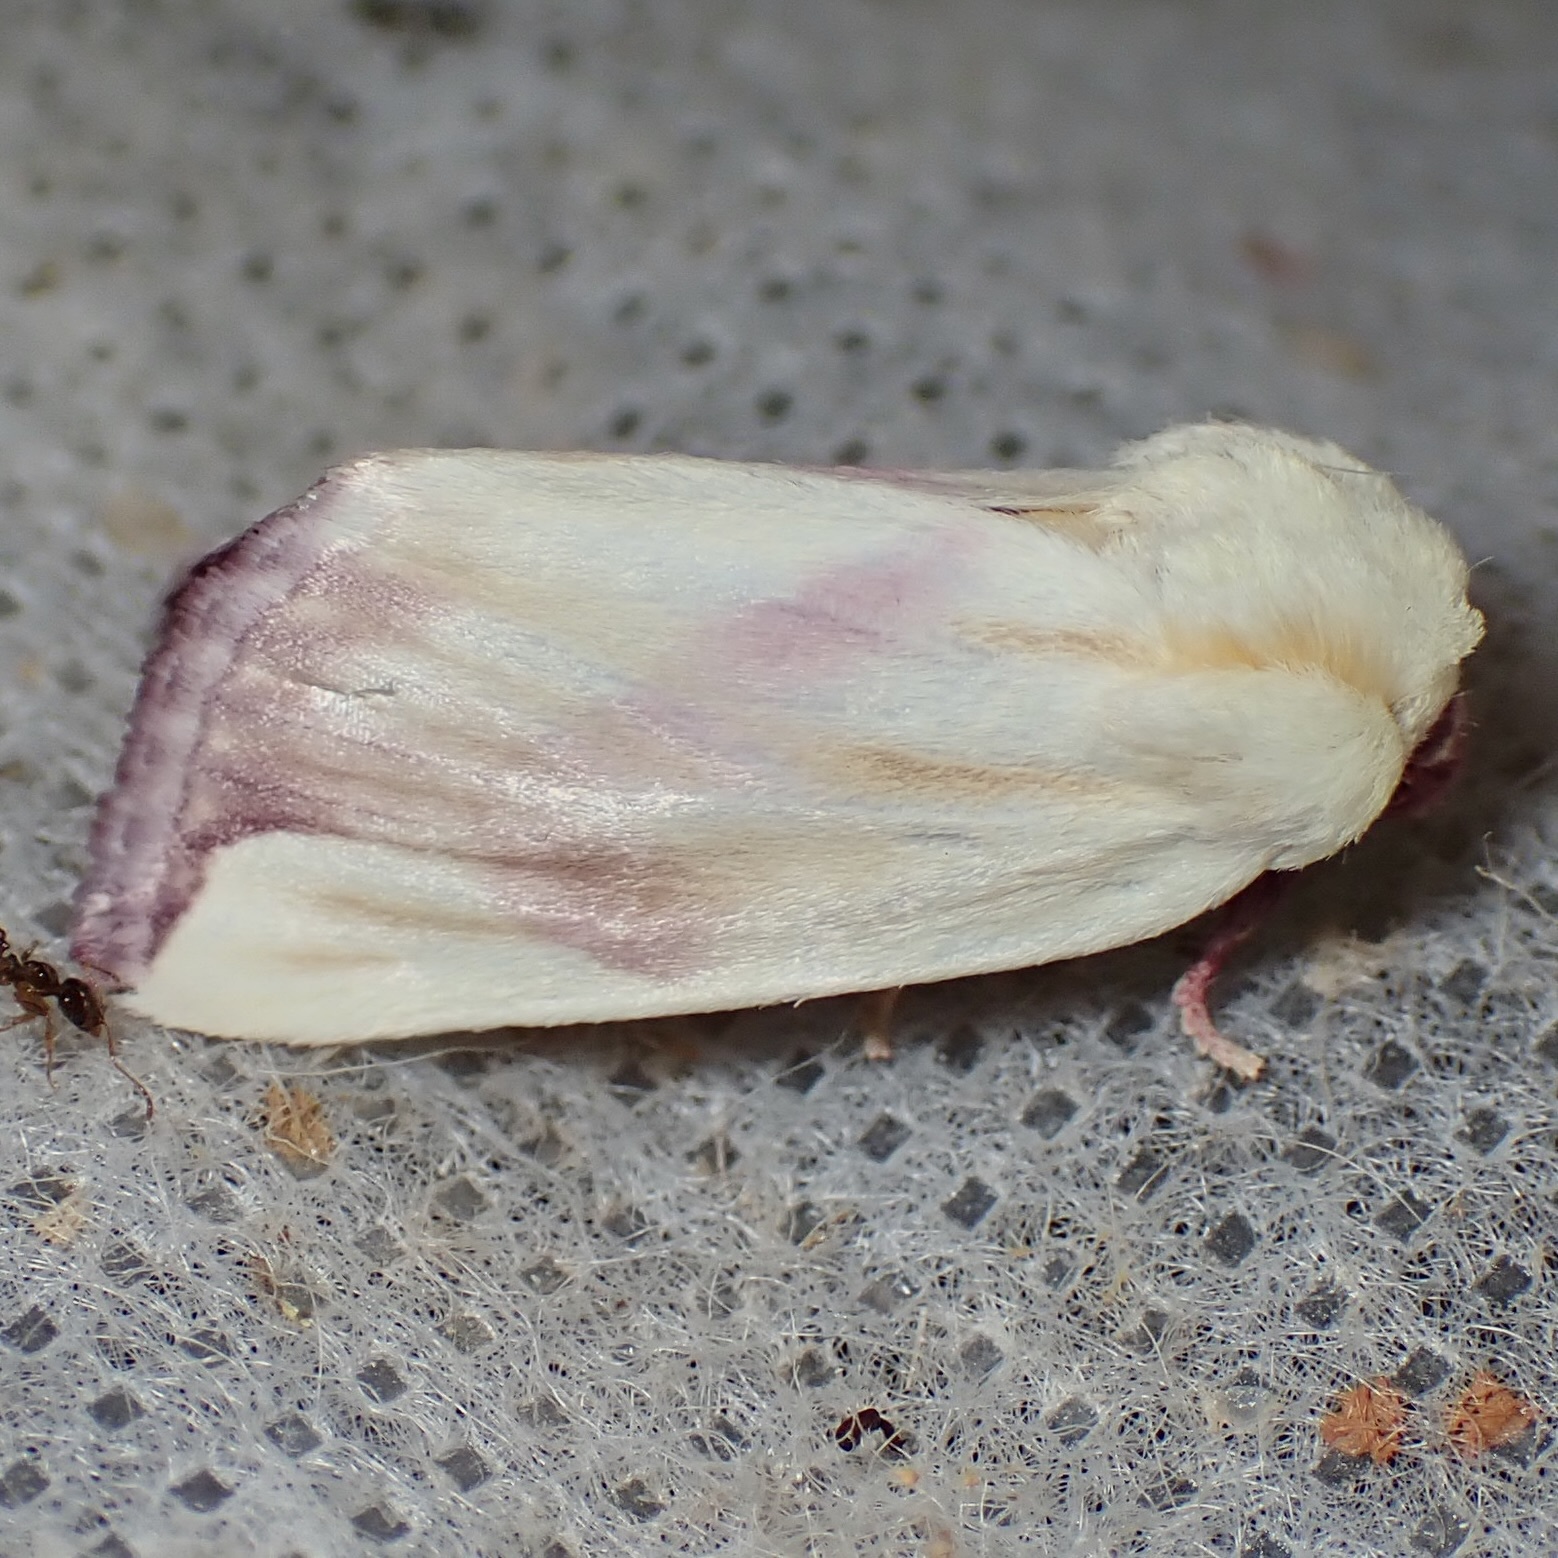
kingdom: Animalia
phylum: Arthropoda
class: Insecta
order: Lepidoptera
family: Noctuidae
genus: Thurberiphaga
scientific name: Thurberiphaga diffusa
